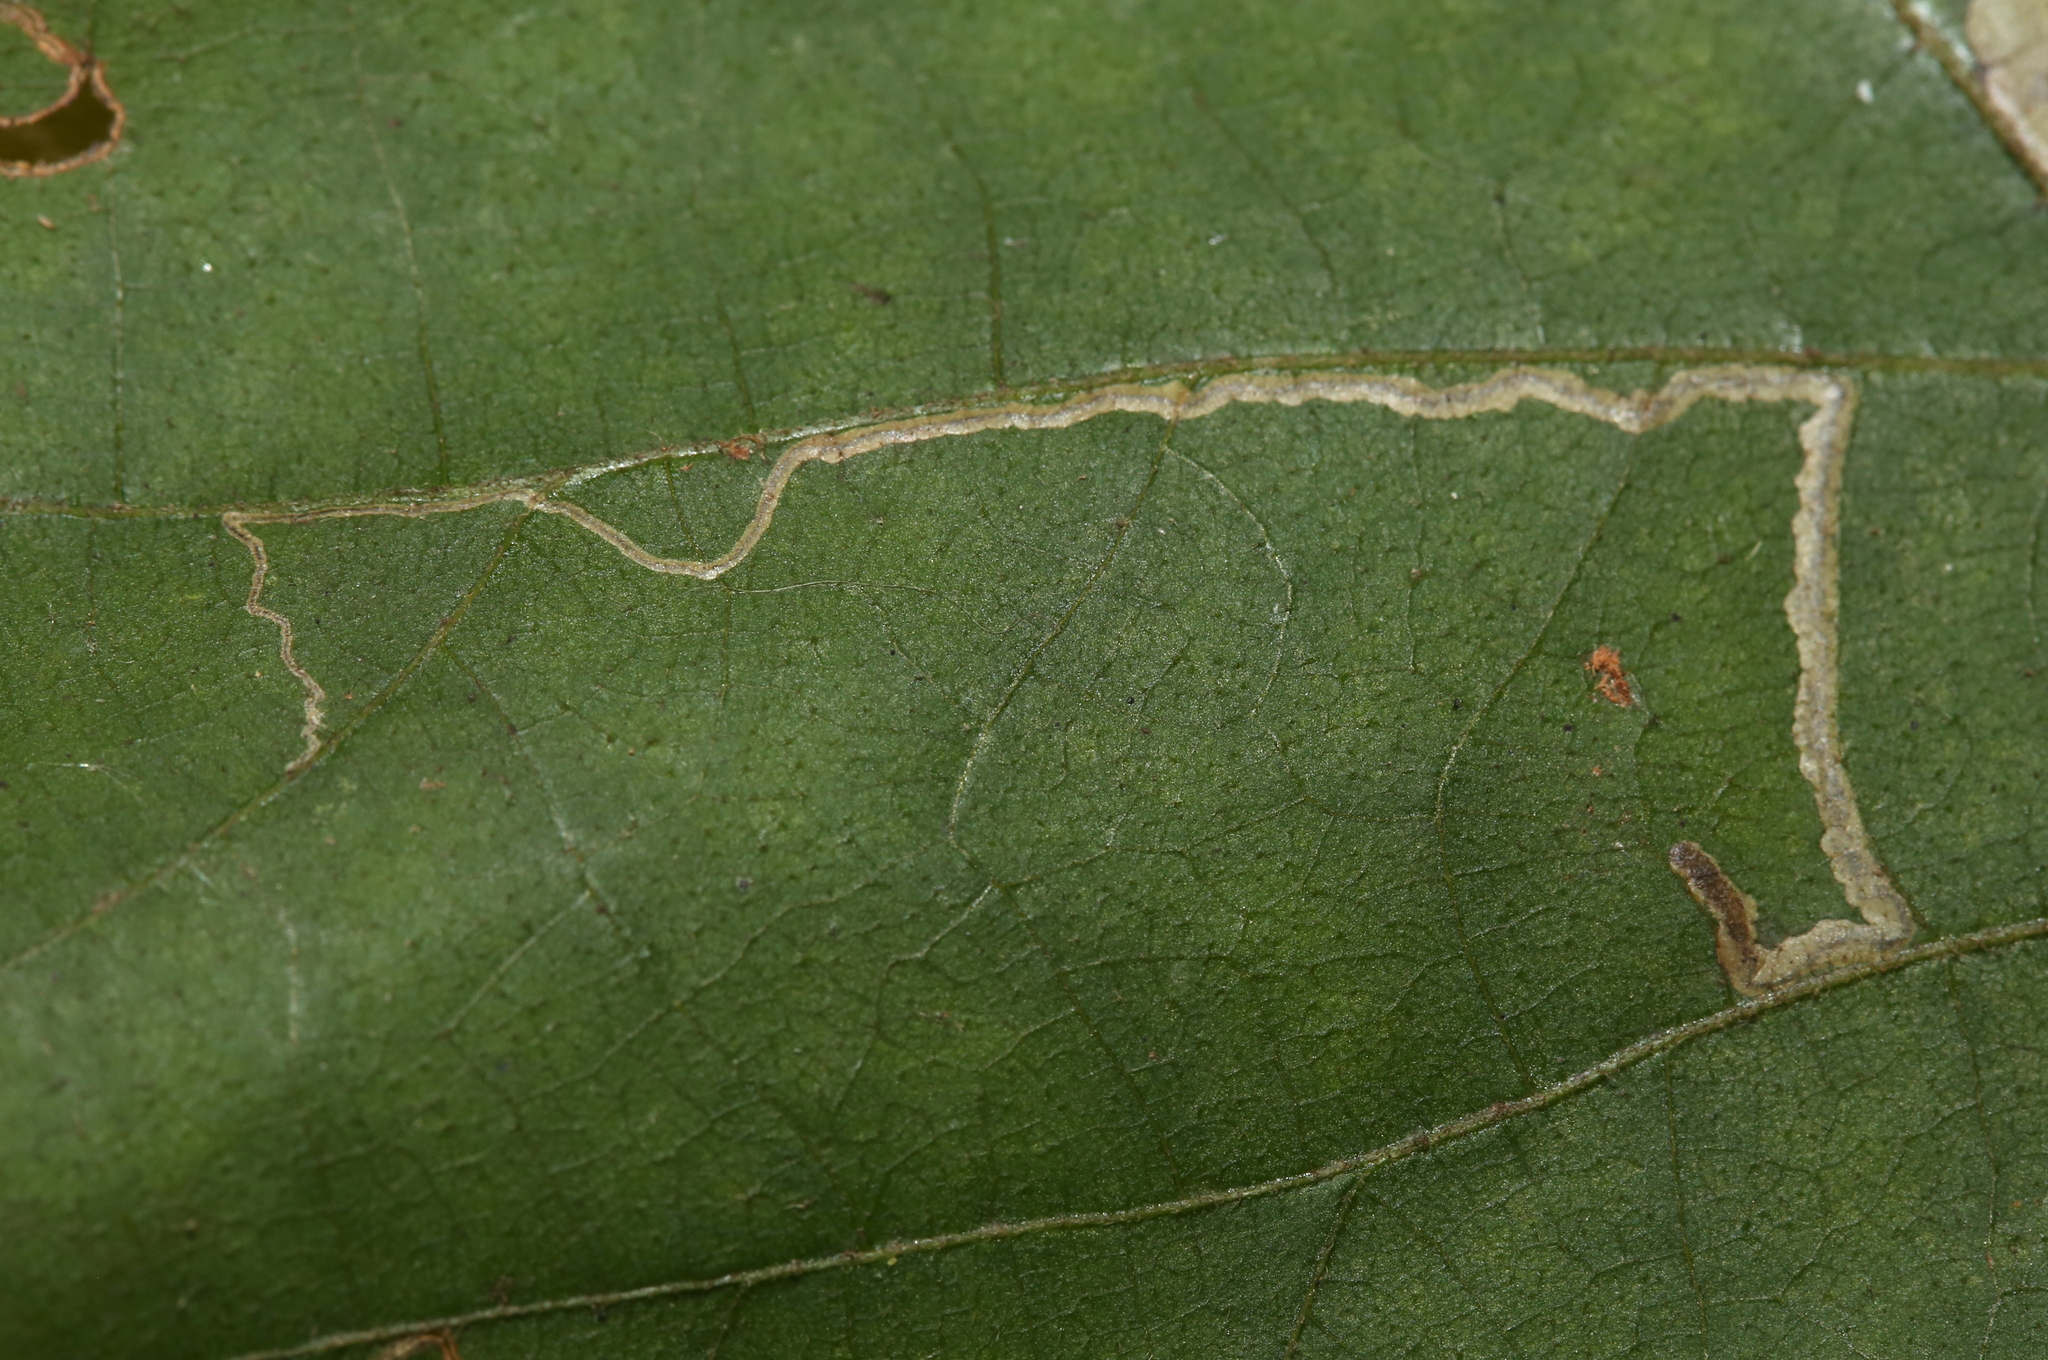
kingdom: Animalia
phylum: Arthropoda
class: Insecta
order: Lepidoptera
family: Nepticulidae
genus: Stigmella
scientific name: Stigmella caryaefoliella
